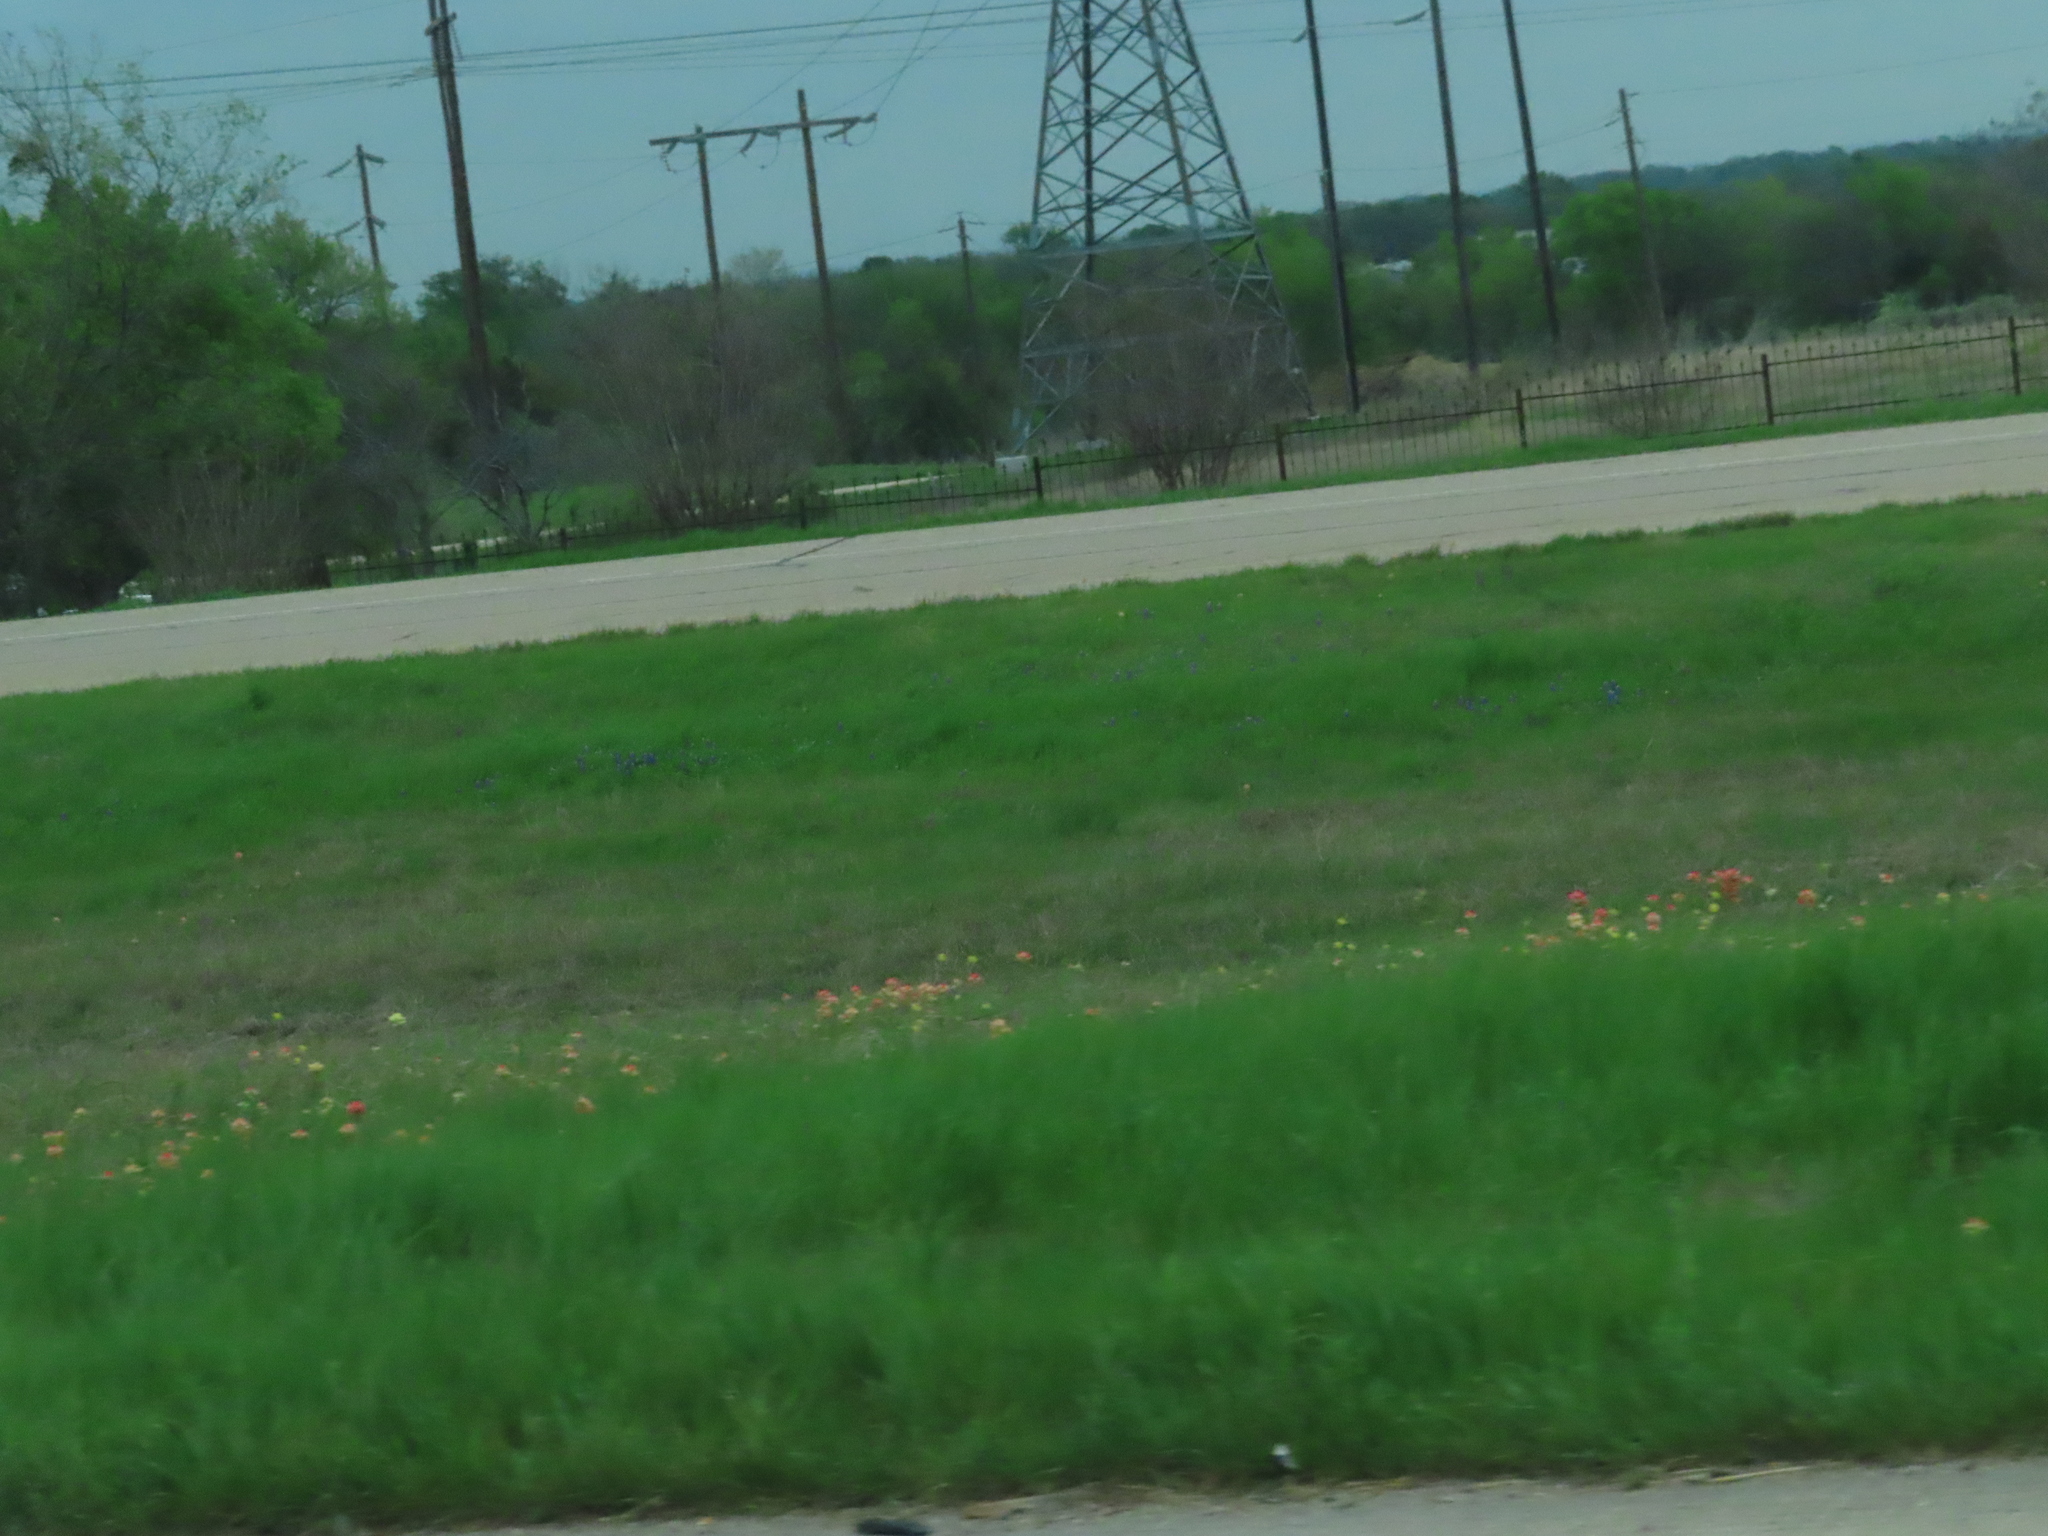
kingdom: Plantae
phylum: Tracheophyta
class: Magnoliopsida
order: Lamiales
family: Orobanchaceae
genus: Castilleja
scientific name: Castilleja indivisa
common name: Texas paintbrush
